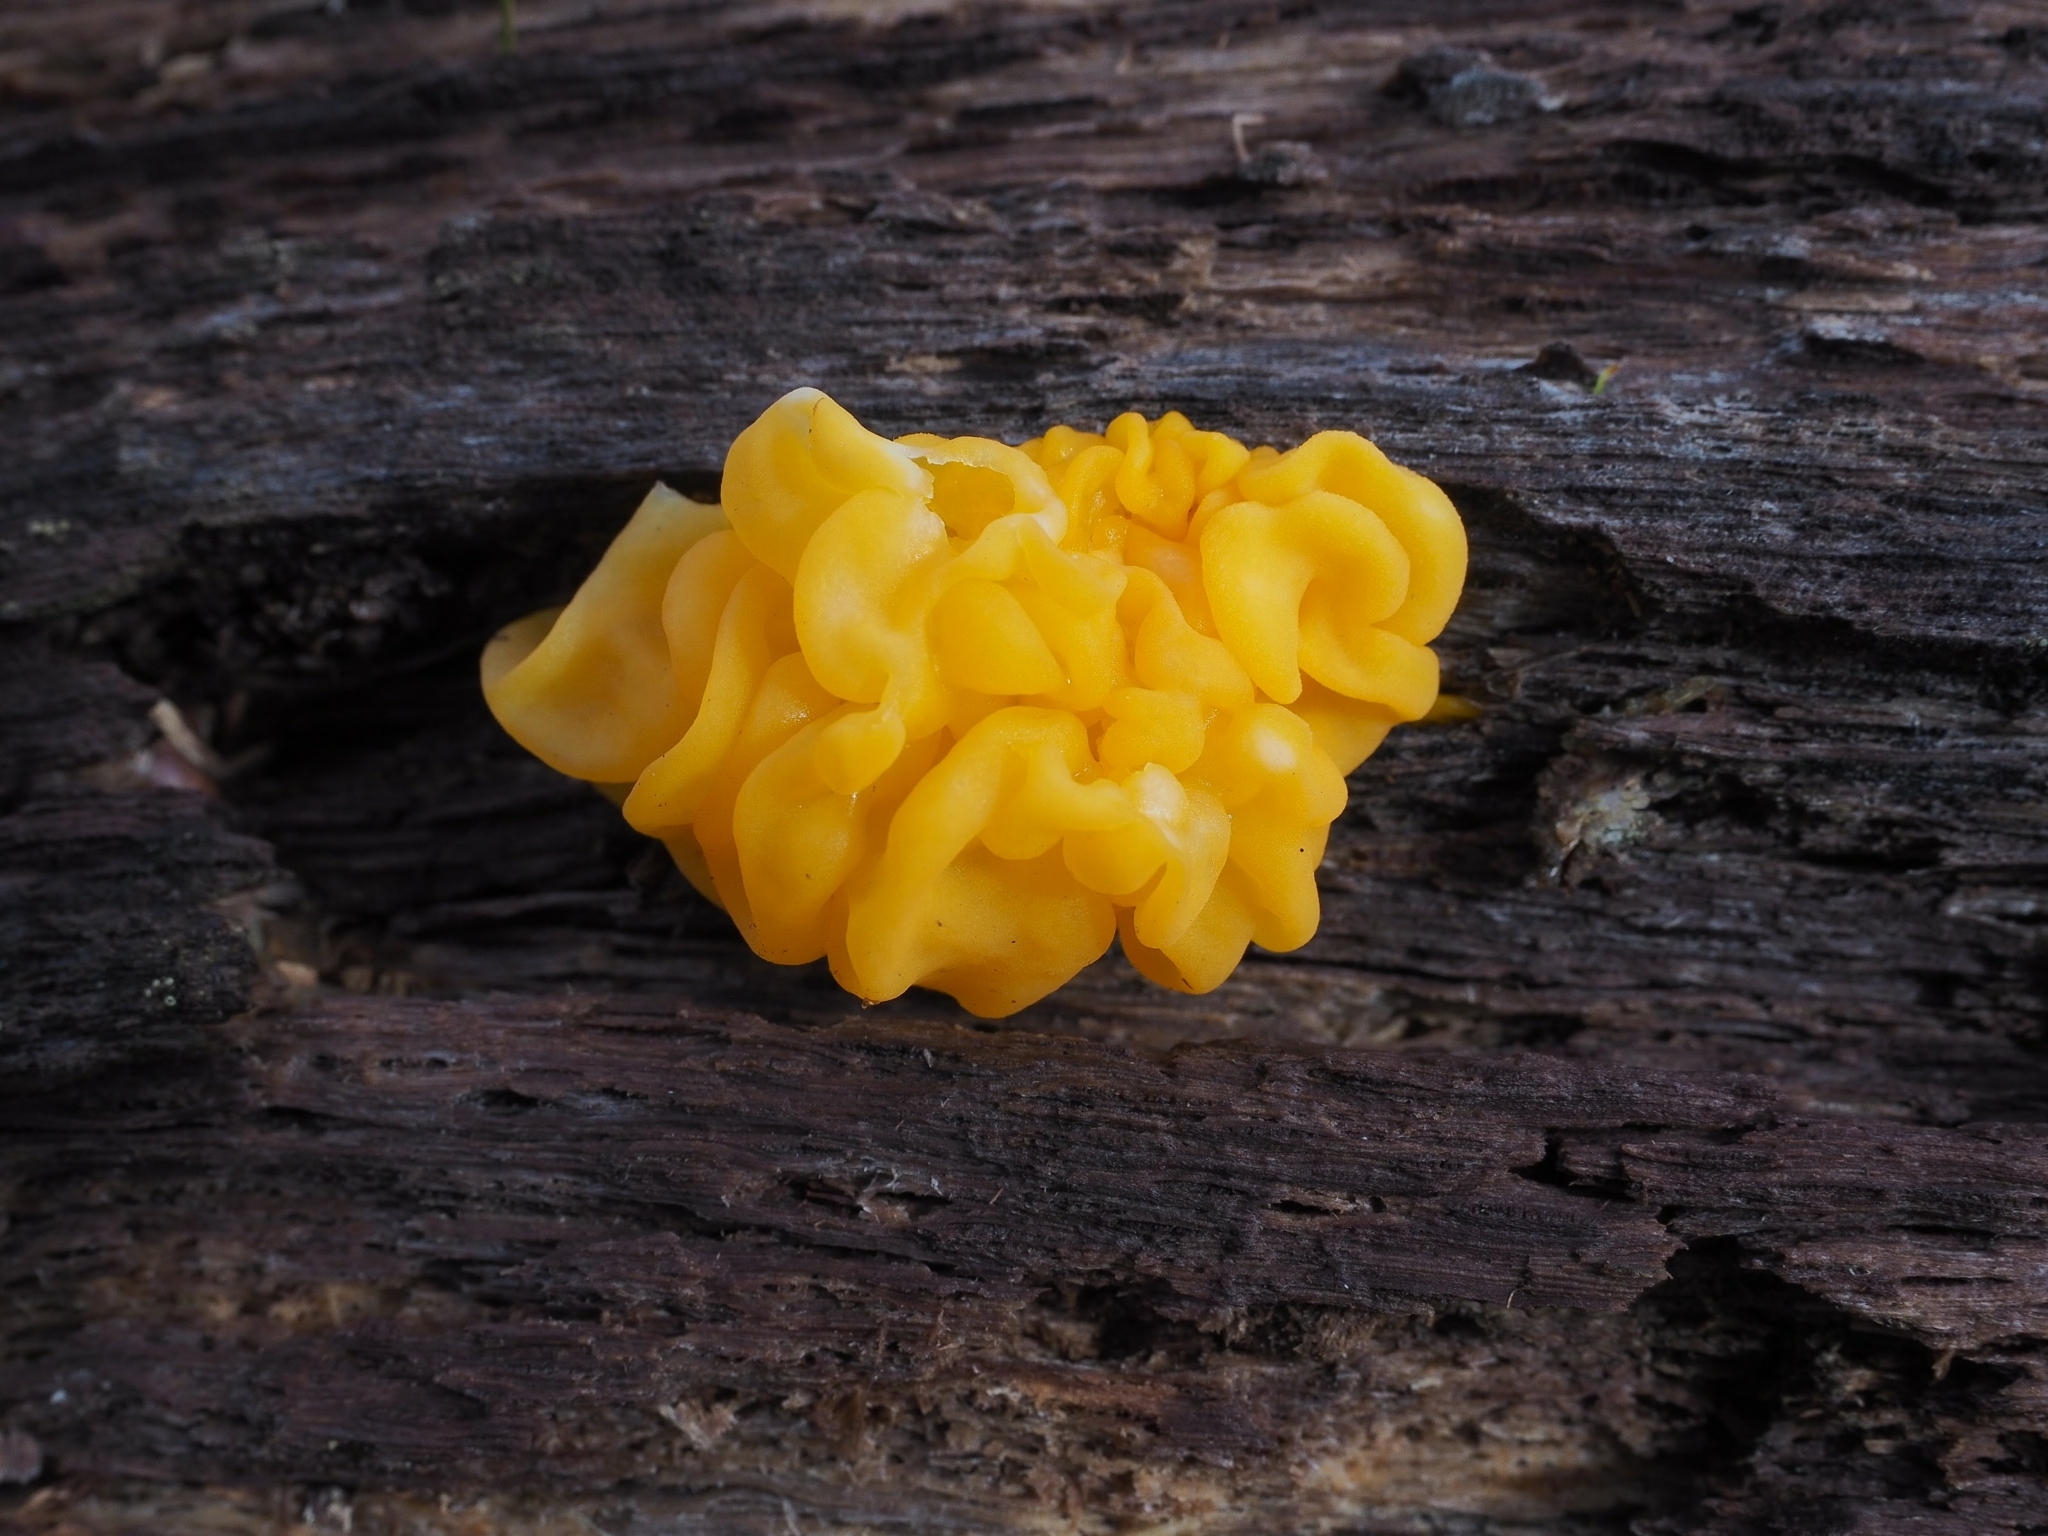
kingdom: Fungi
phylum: Basidiomycota
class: Tremellomycetes
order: Tremellales
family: Naemateliaceae
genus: Naematelia
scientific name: Naematelia aurantia
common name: Golden ear
